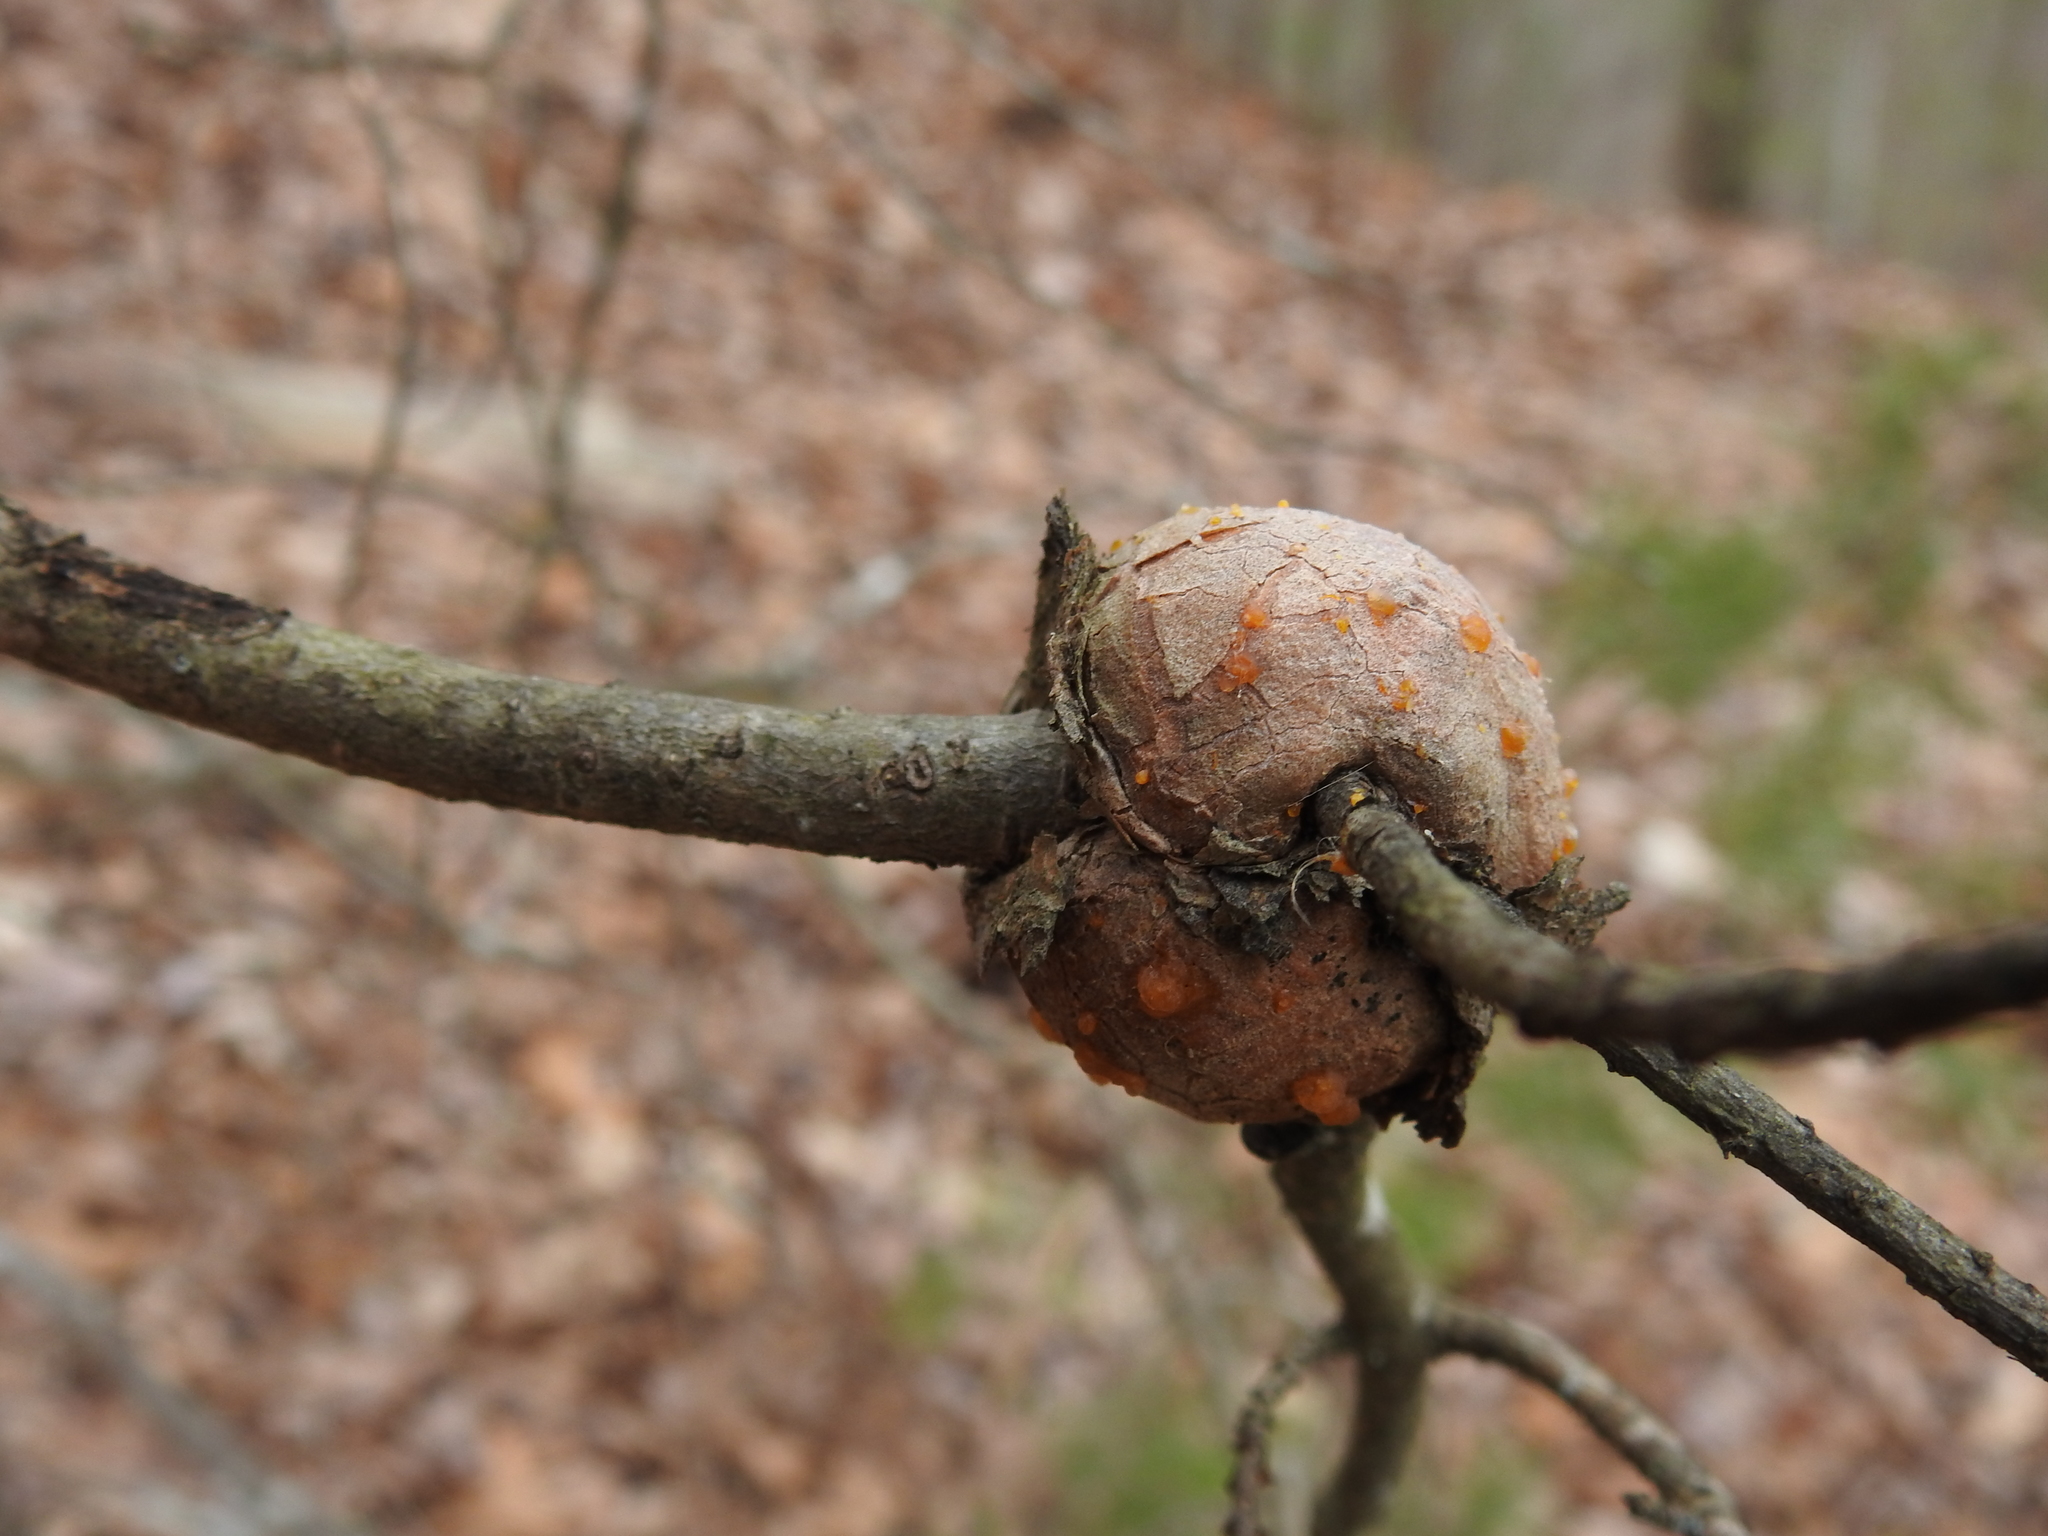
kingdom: Fungi
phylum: Basidiomycota
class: Pucciniomycetes
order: Pucciniales
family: Cronartiaceae
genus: Cronartium
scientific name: Cronartium quercuum
